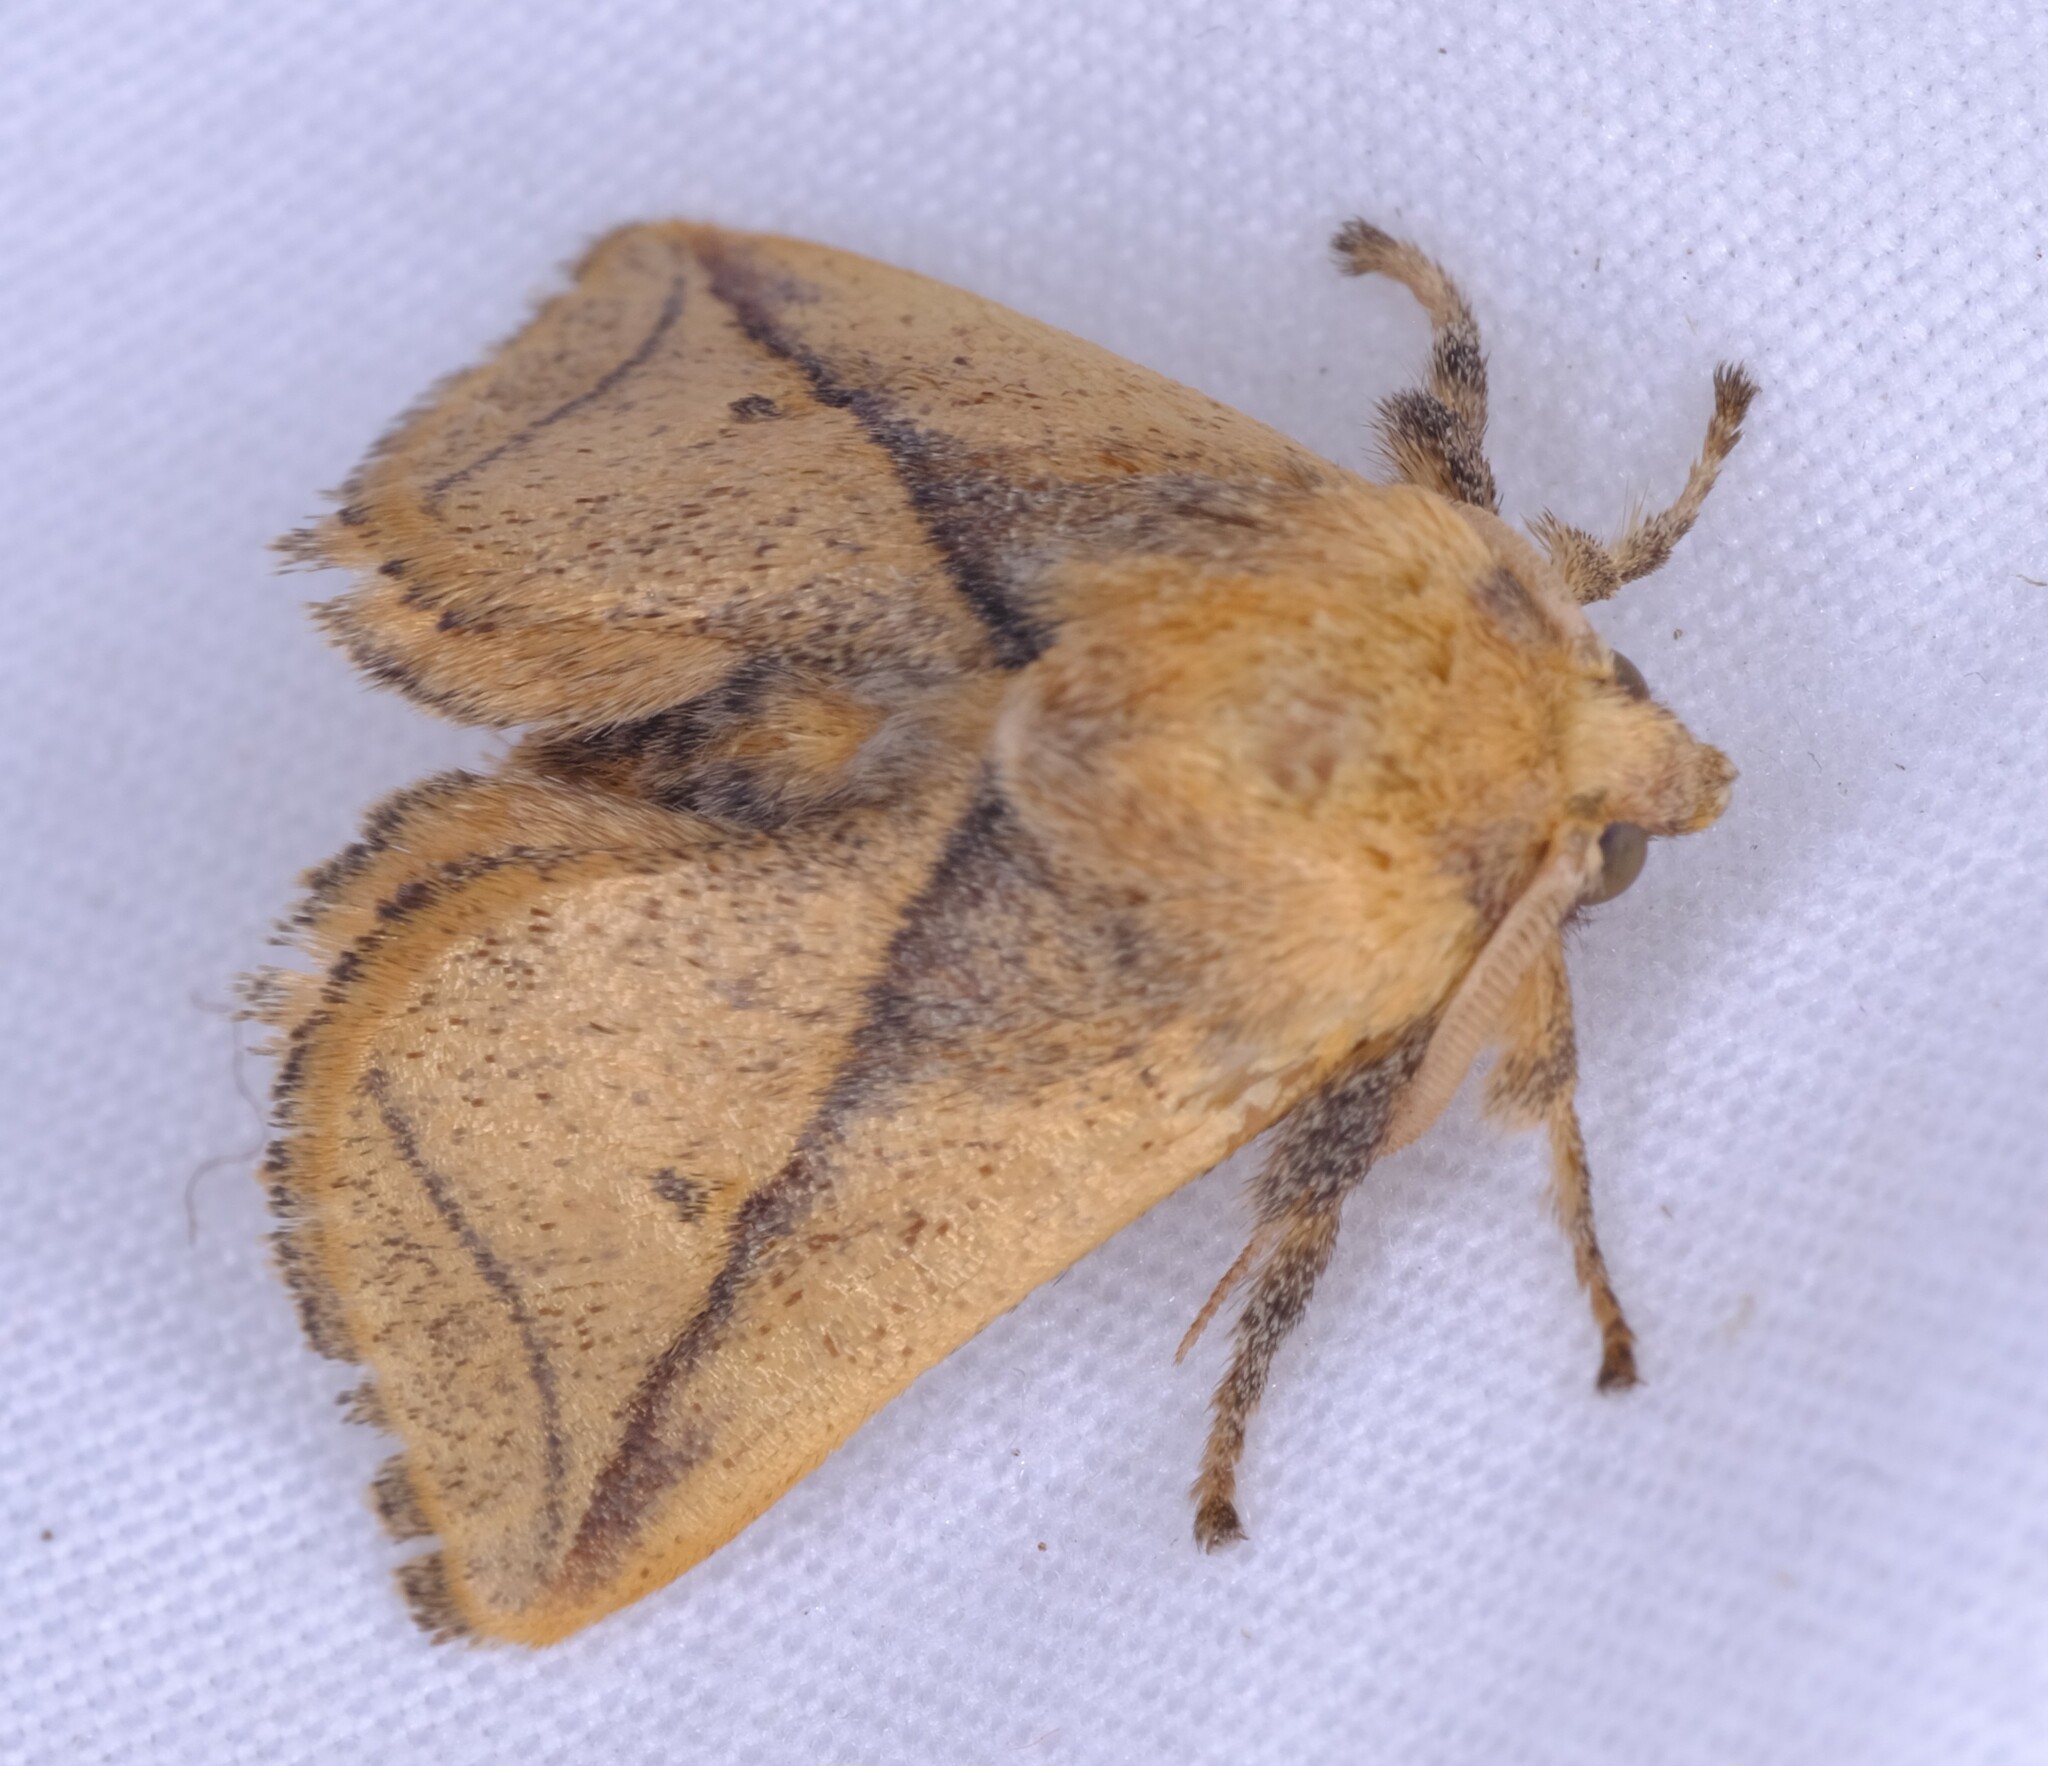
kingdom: Animalia
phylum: Arthropoda
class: Insecta
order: Lepidoptera
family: Limacodidae
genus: Anaxidia
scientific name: Anaxidia lozogramma
